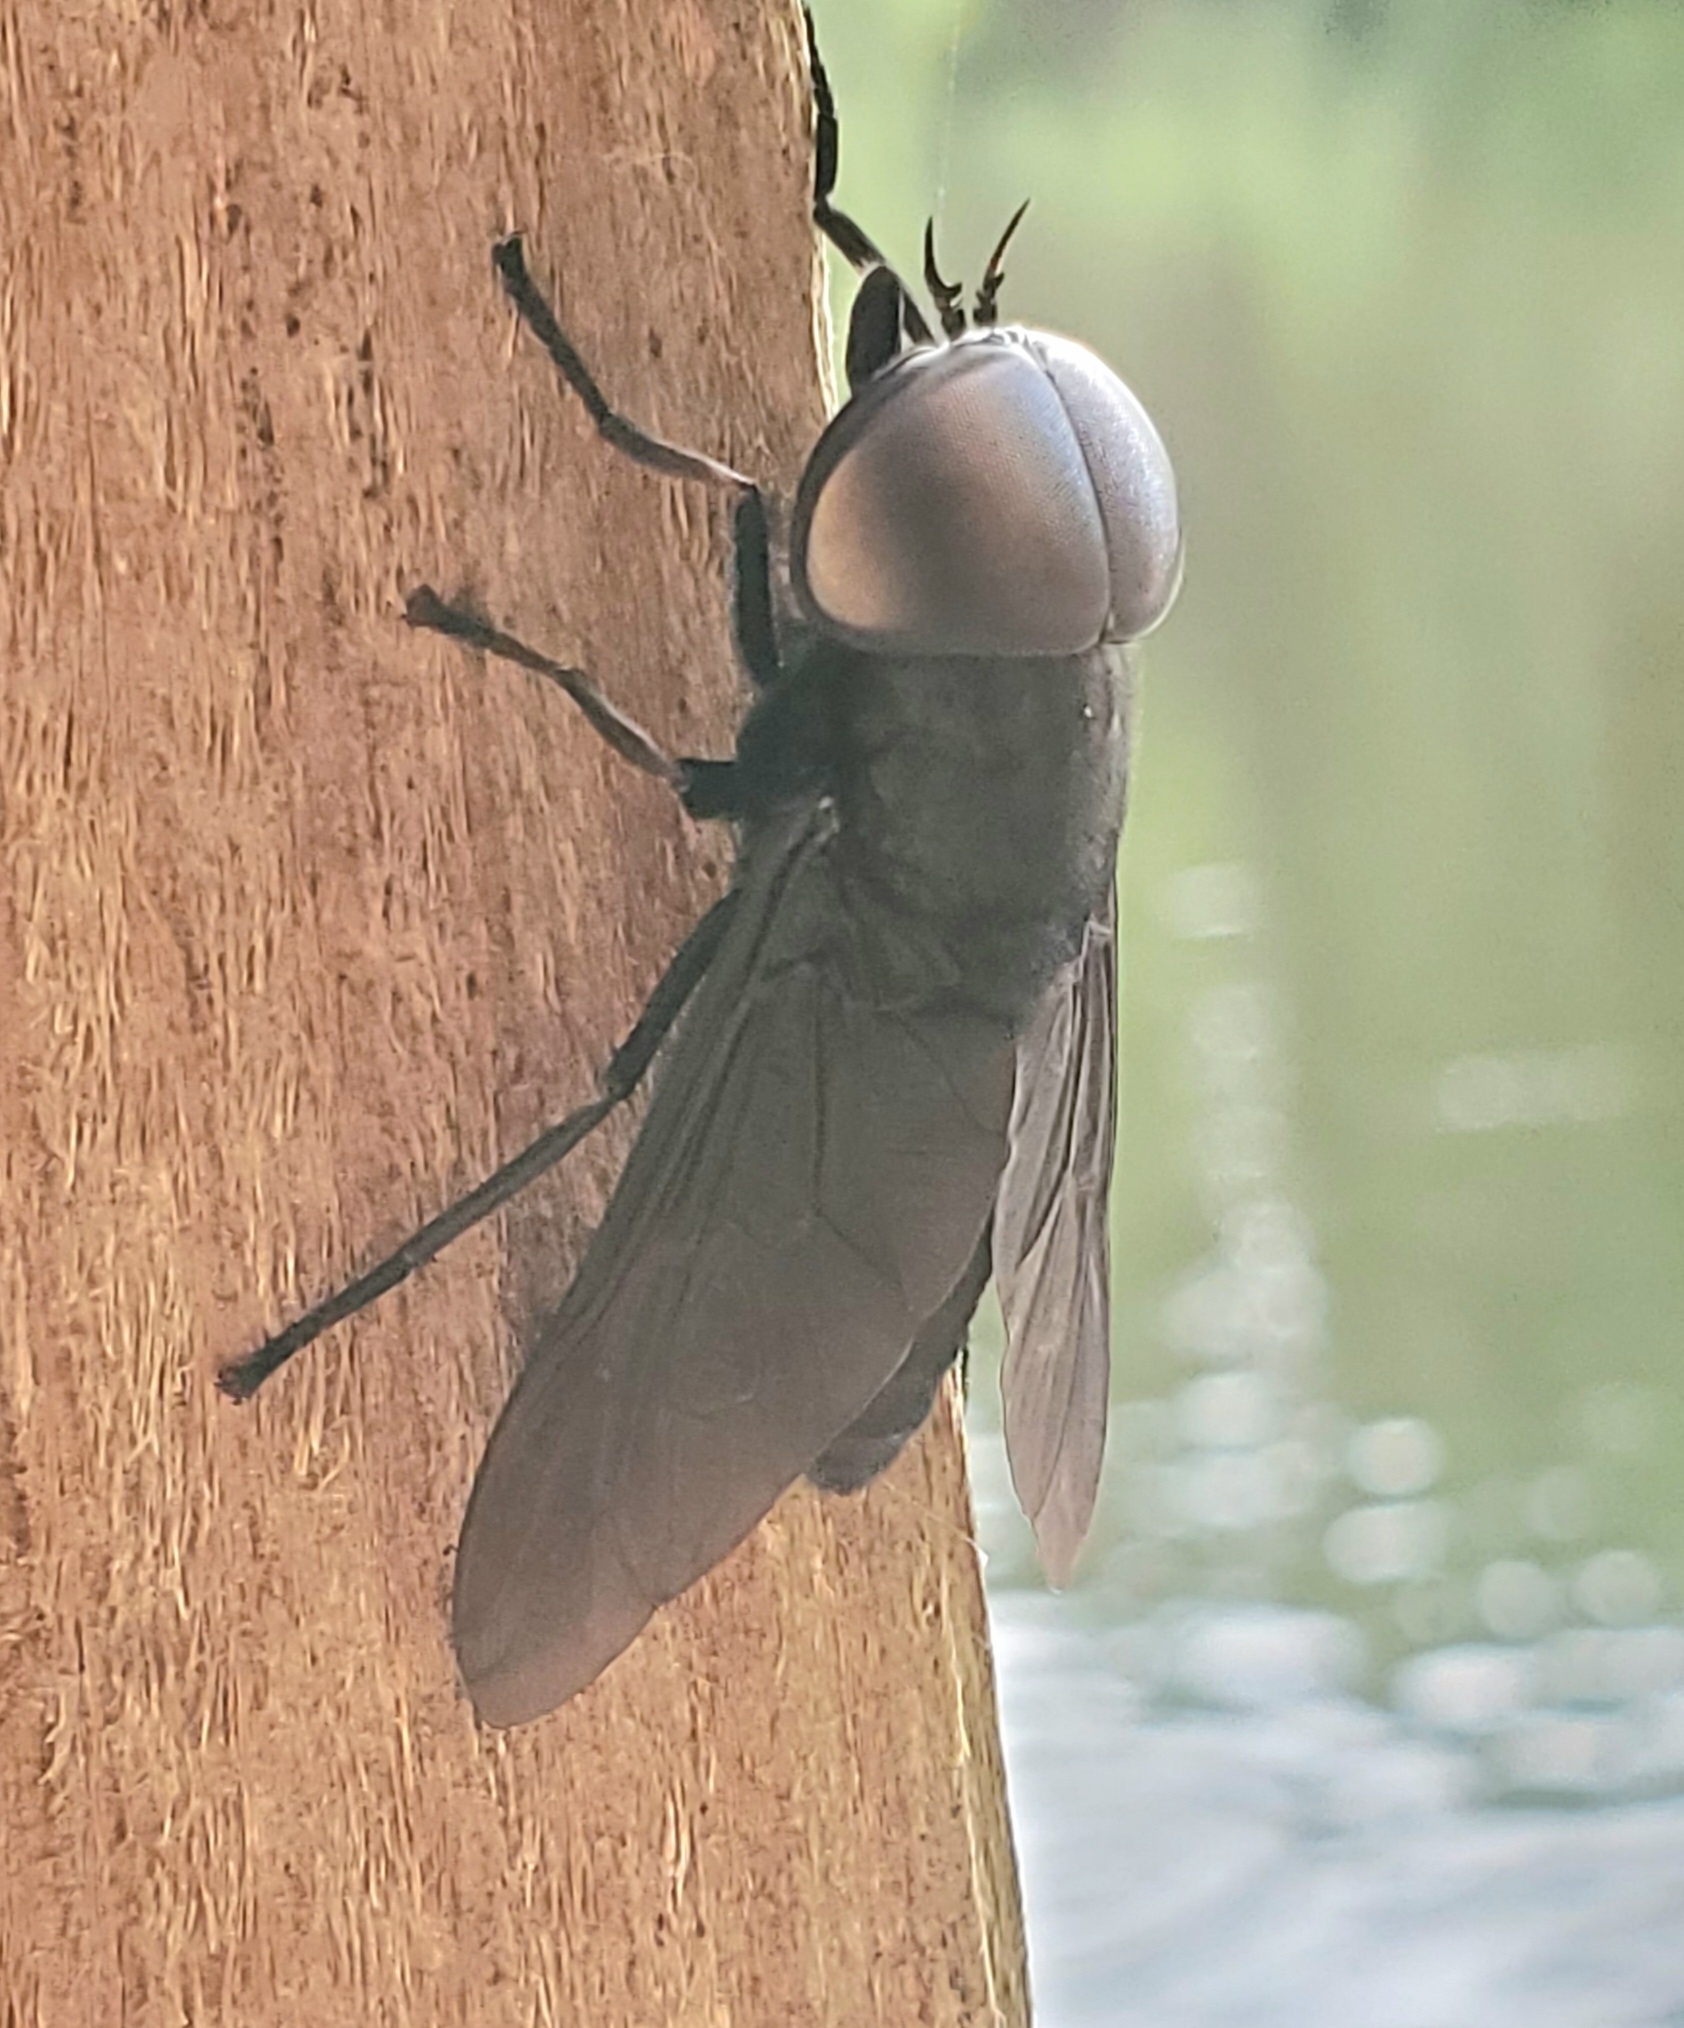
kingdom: Animalia
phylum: Arthropoda
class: Insecta
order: Diptera
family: Tabanidae
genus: Tabanus
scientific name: Tabanus atratus
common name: Black horse fly
